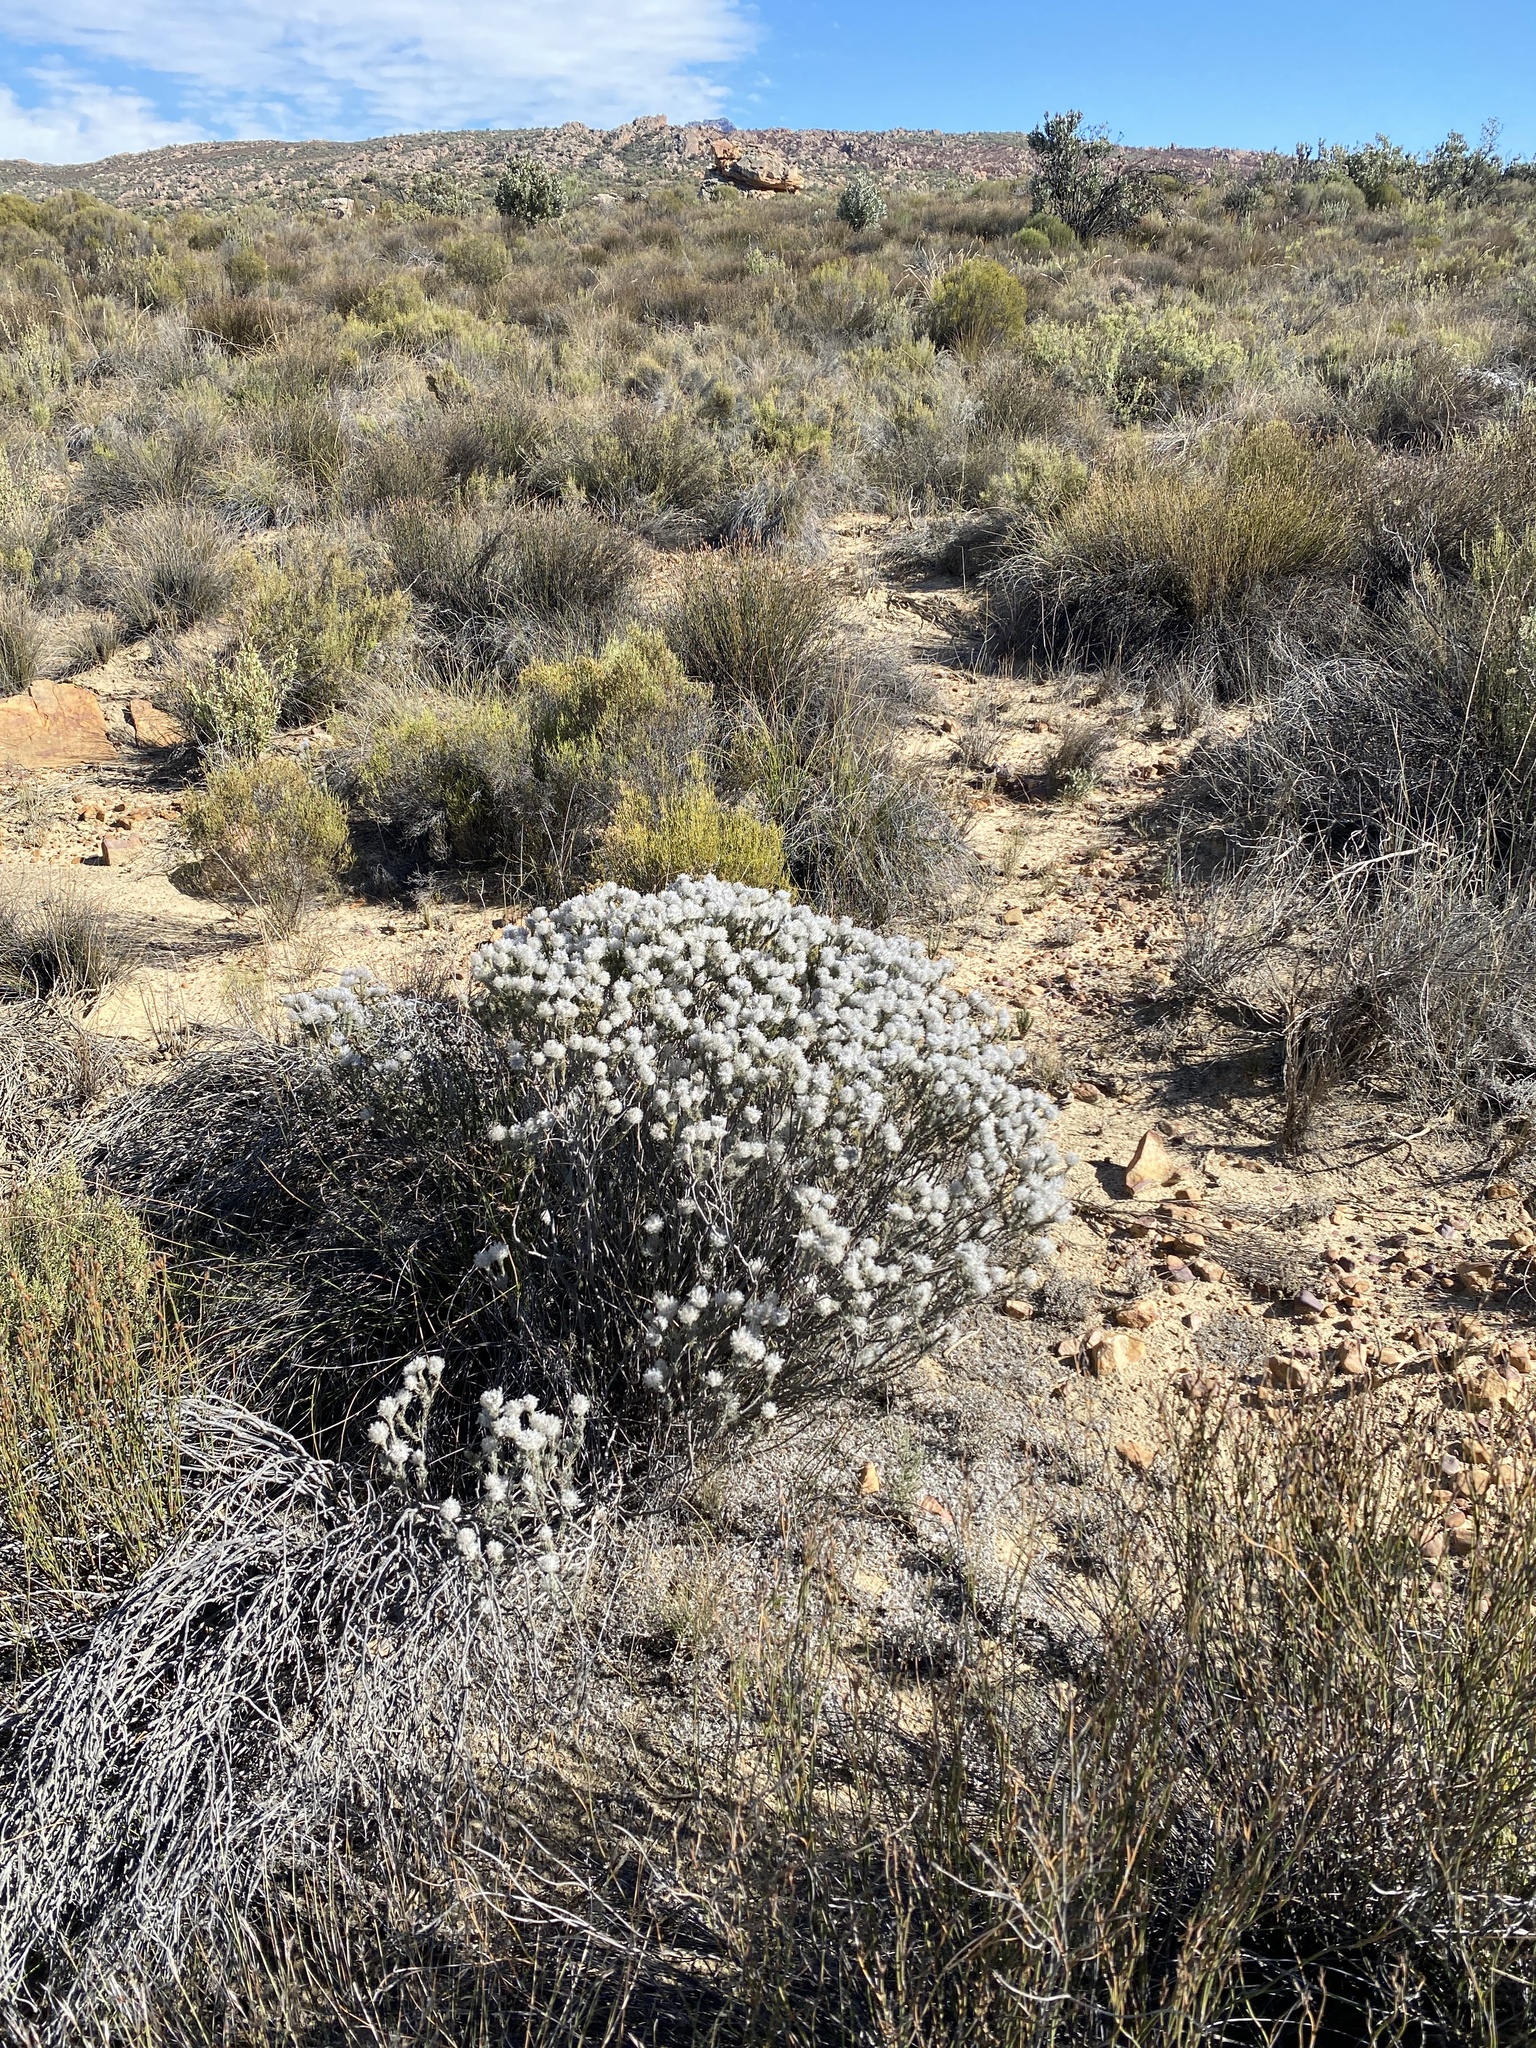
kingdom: Plantae
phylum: Tracheophyta
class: Magnoliopsida
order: Rosales
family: Rhamnaceae
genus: Phylica
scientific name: Phylica leipoldtii
